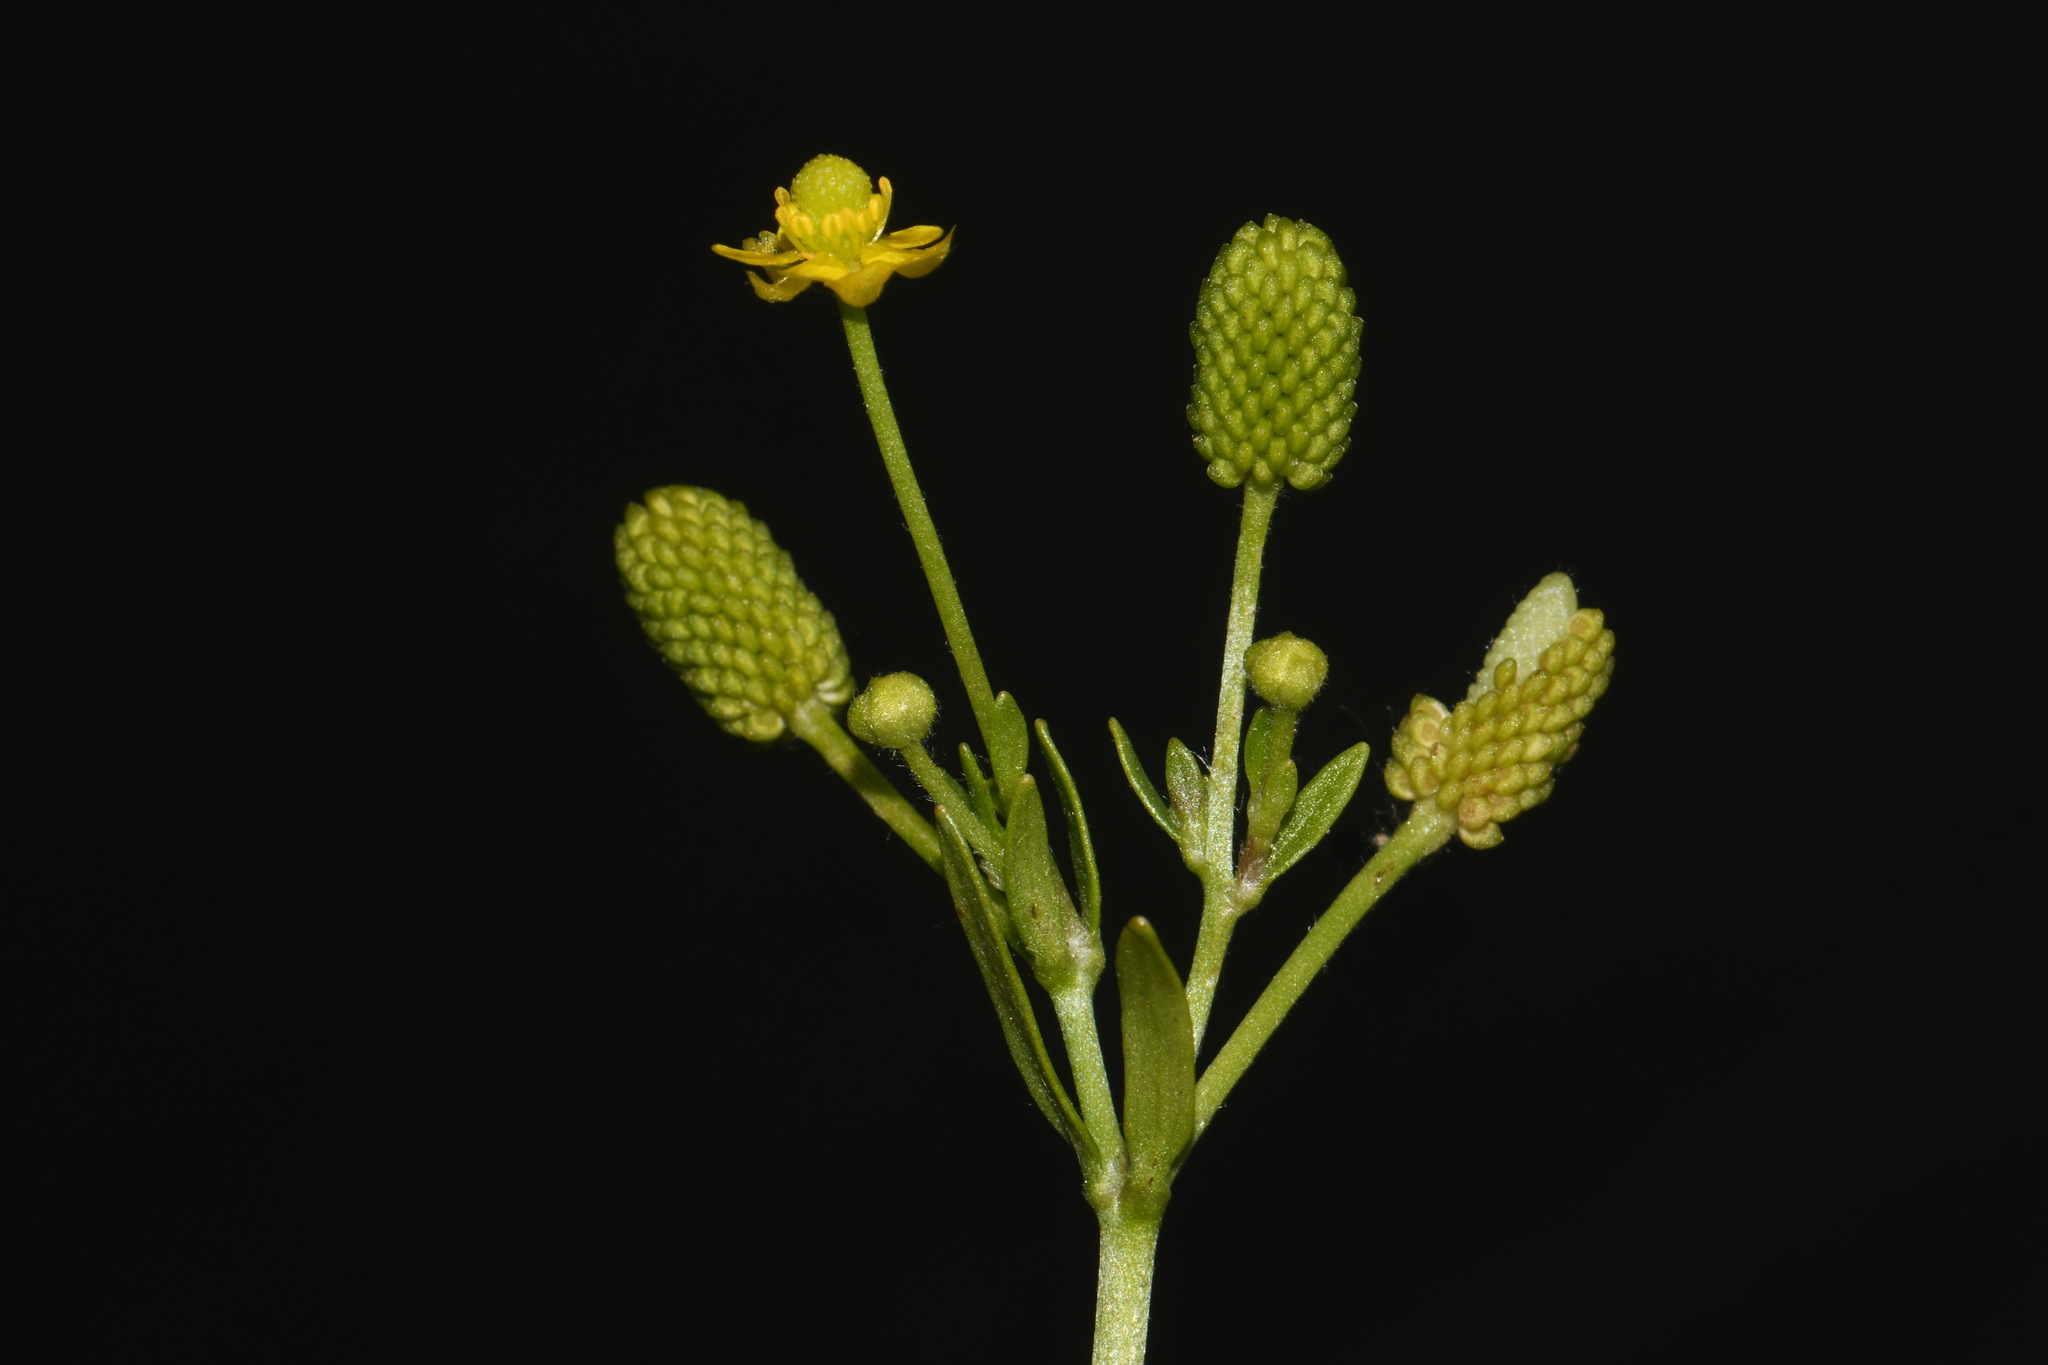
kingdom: Plantae
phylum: Tracheophyta
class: Magnoliopsida
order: Ranunculales
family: Ranunculaceae
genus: Ranunculus
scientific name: Ranunculus sceleratus
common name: Celery-leaved buttercup
